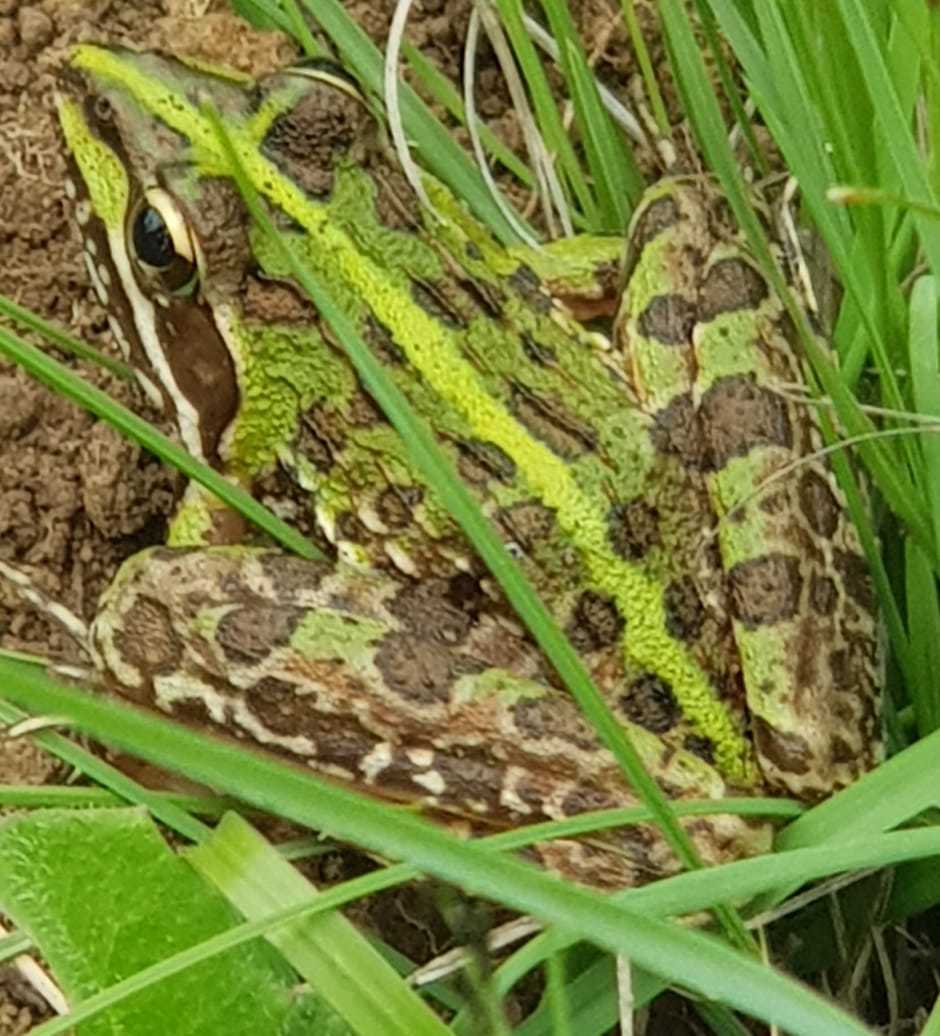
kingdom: Animalia
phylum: Chordata
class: Amphibia
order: Anura
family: Pyxicephalidae
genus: Amietia
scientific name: Amietia delalandii
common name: Delalande's river frog
